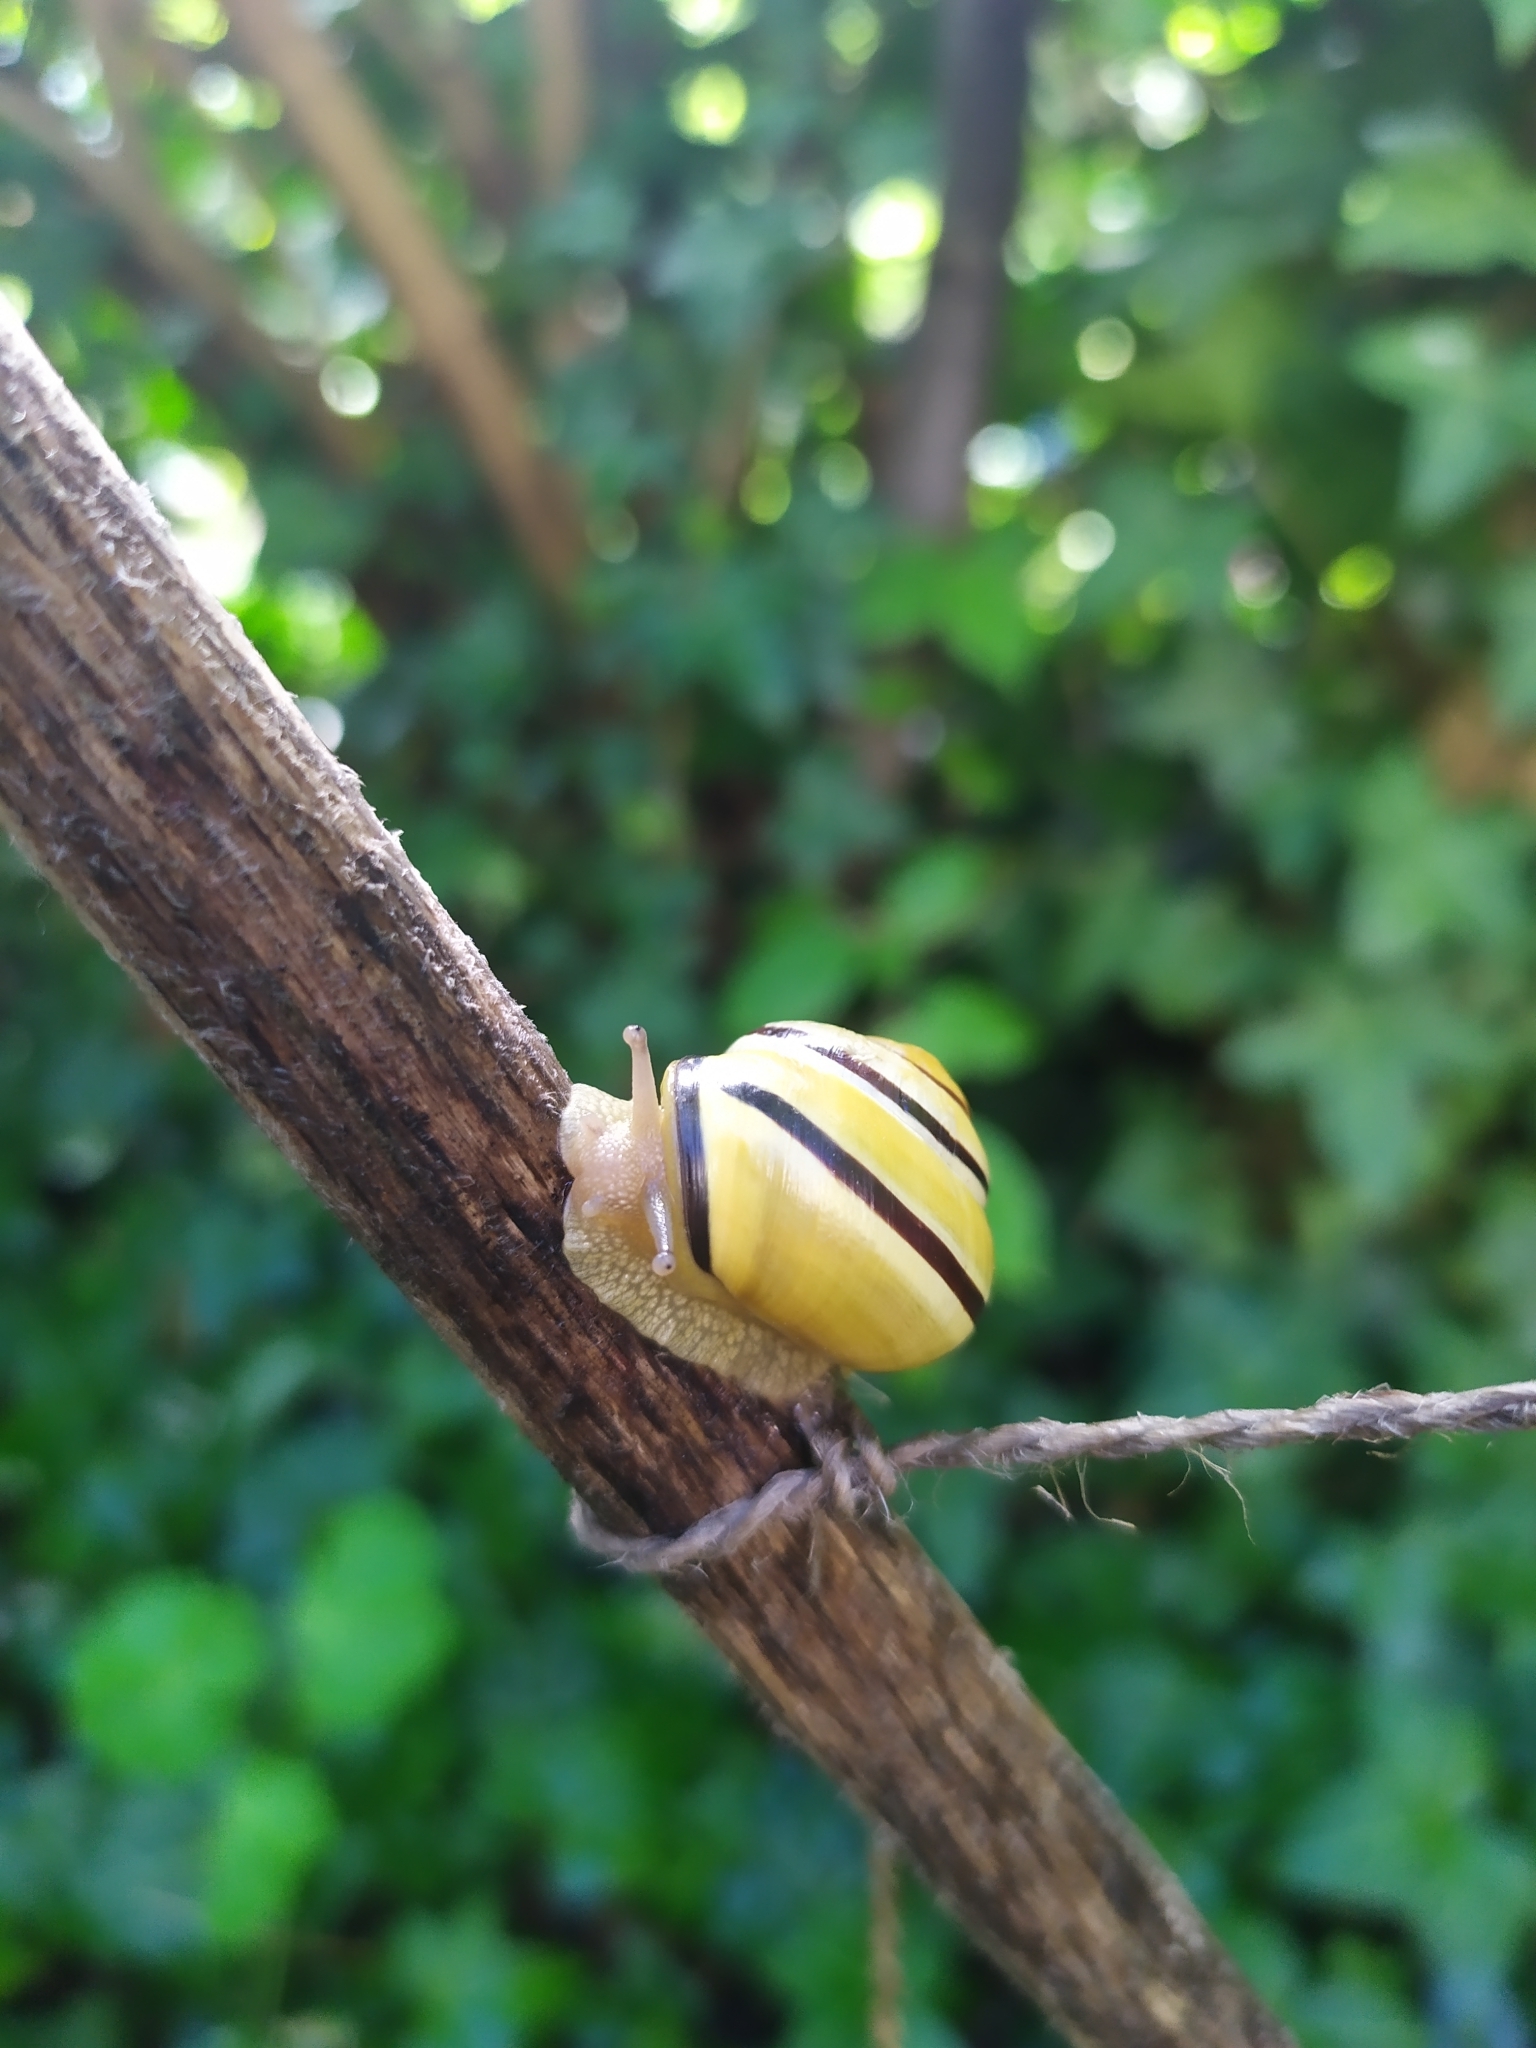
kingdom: Animalia
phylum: Mollusca
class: Gastropoda
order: Stylommatophora
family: Helicidae
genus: Cepaea
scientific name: Cepaea nemoralis
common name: Grovesnail
